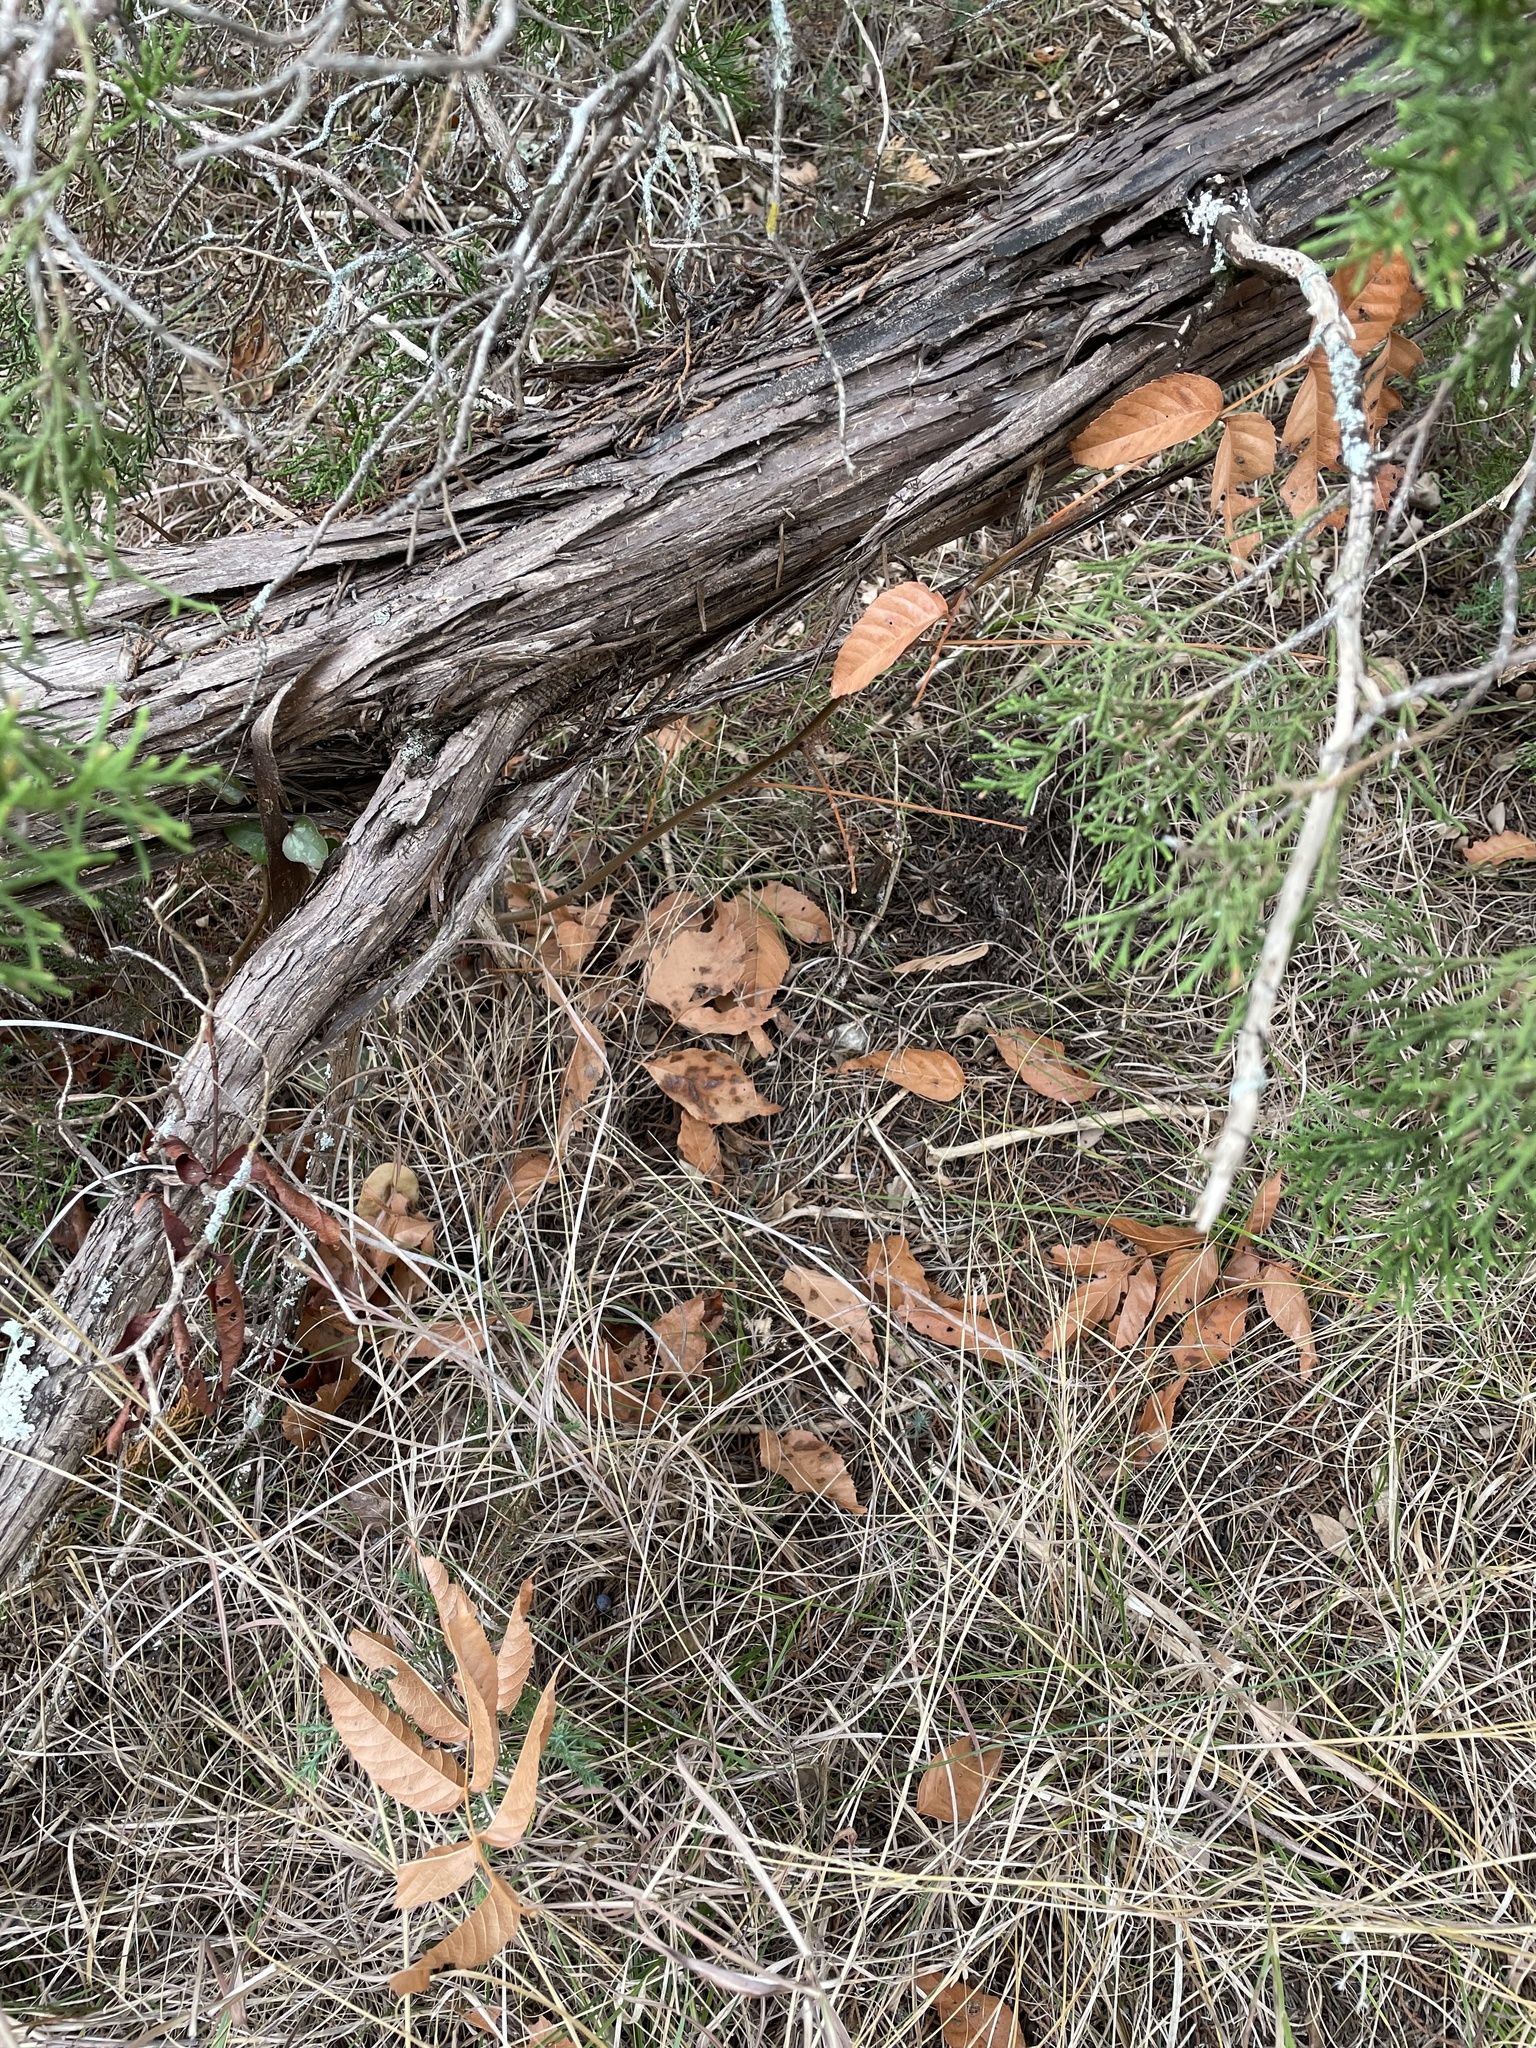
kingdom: Plantae
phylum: Tracheophyta
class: Magnoliopsida
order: Sapindales
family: Sapindaceae
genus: Ungnadia
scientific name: Ungnadia speciosa
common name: Texas-buckeye
